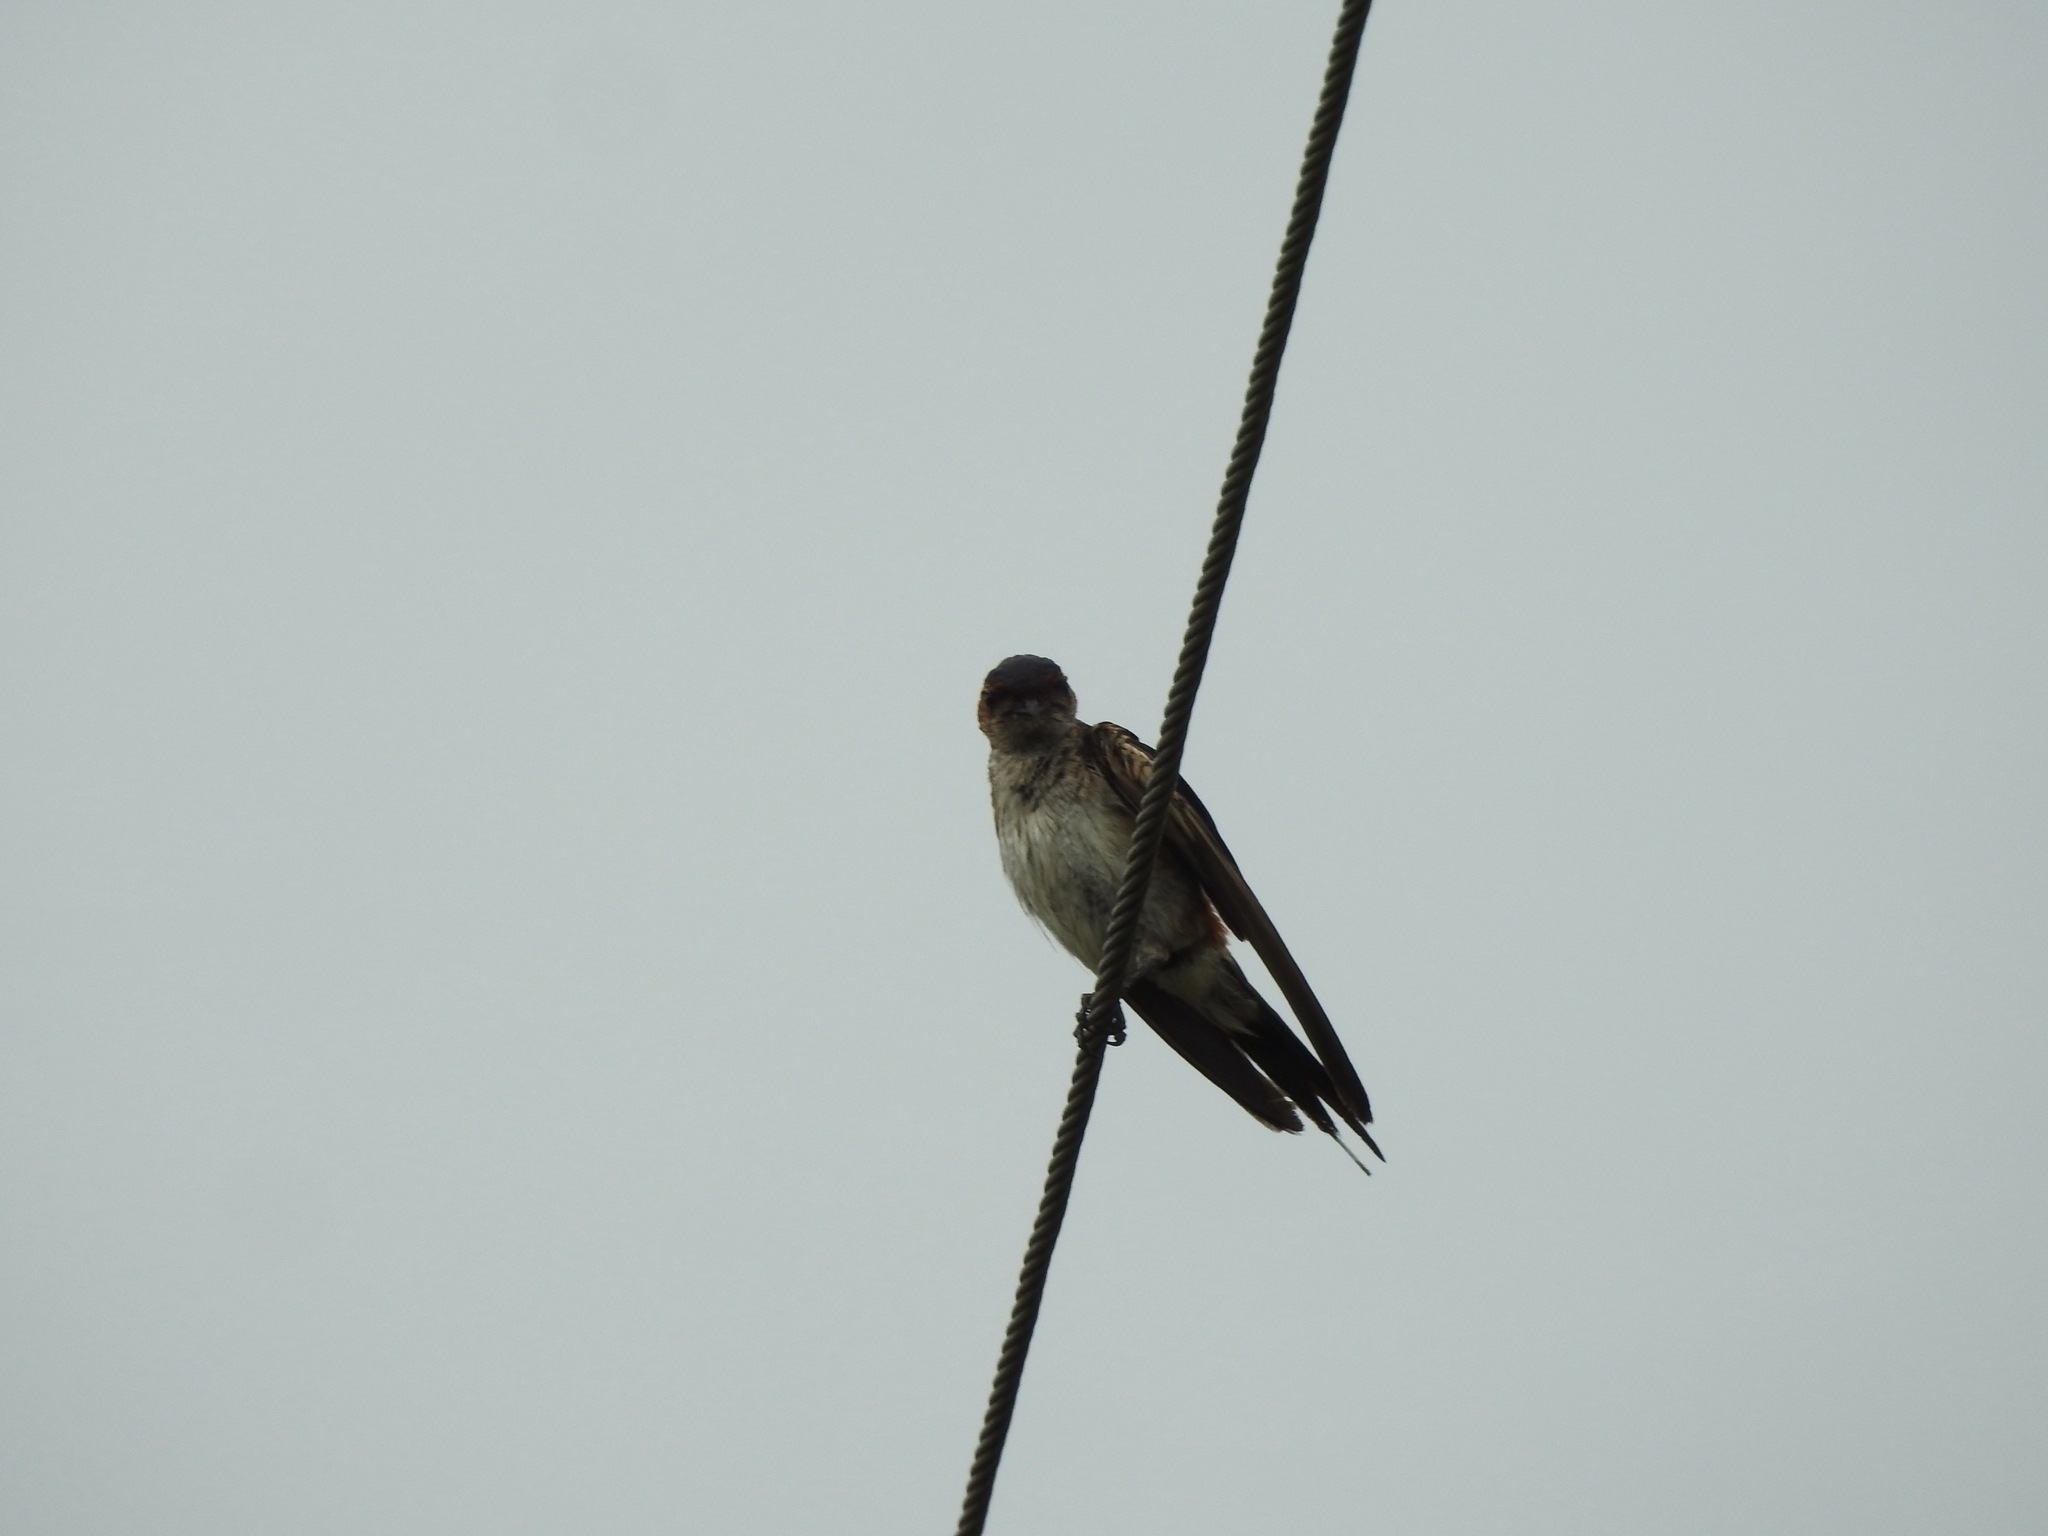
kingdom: Animalia
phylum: Chordata
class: Aves
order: Passeriformes
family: Hirundinidae
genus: Cecropis
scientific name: Cecropis daurica
